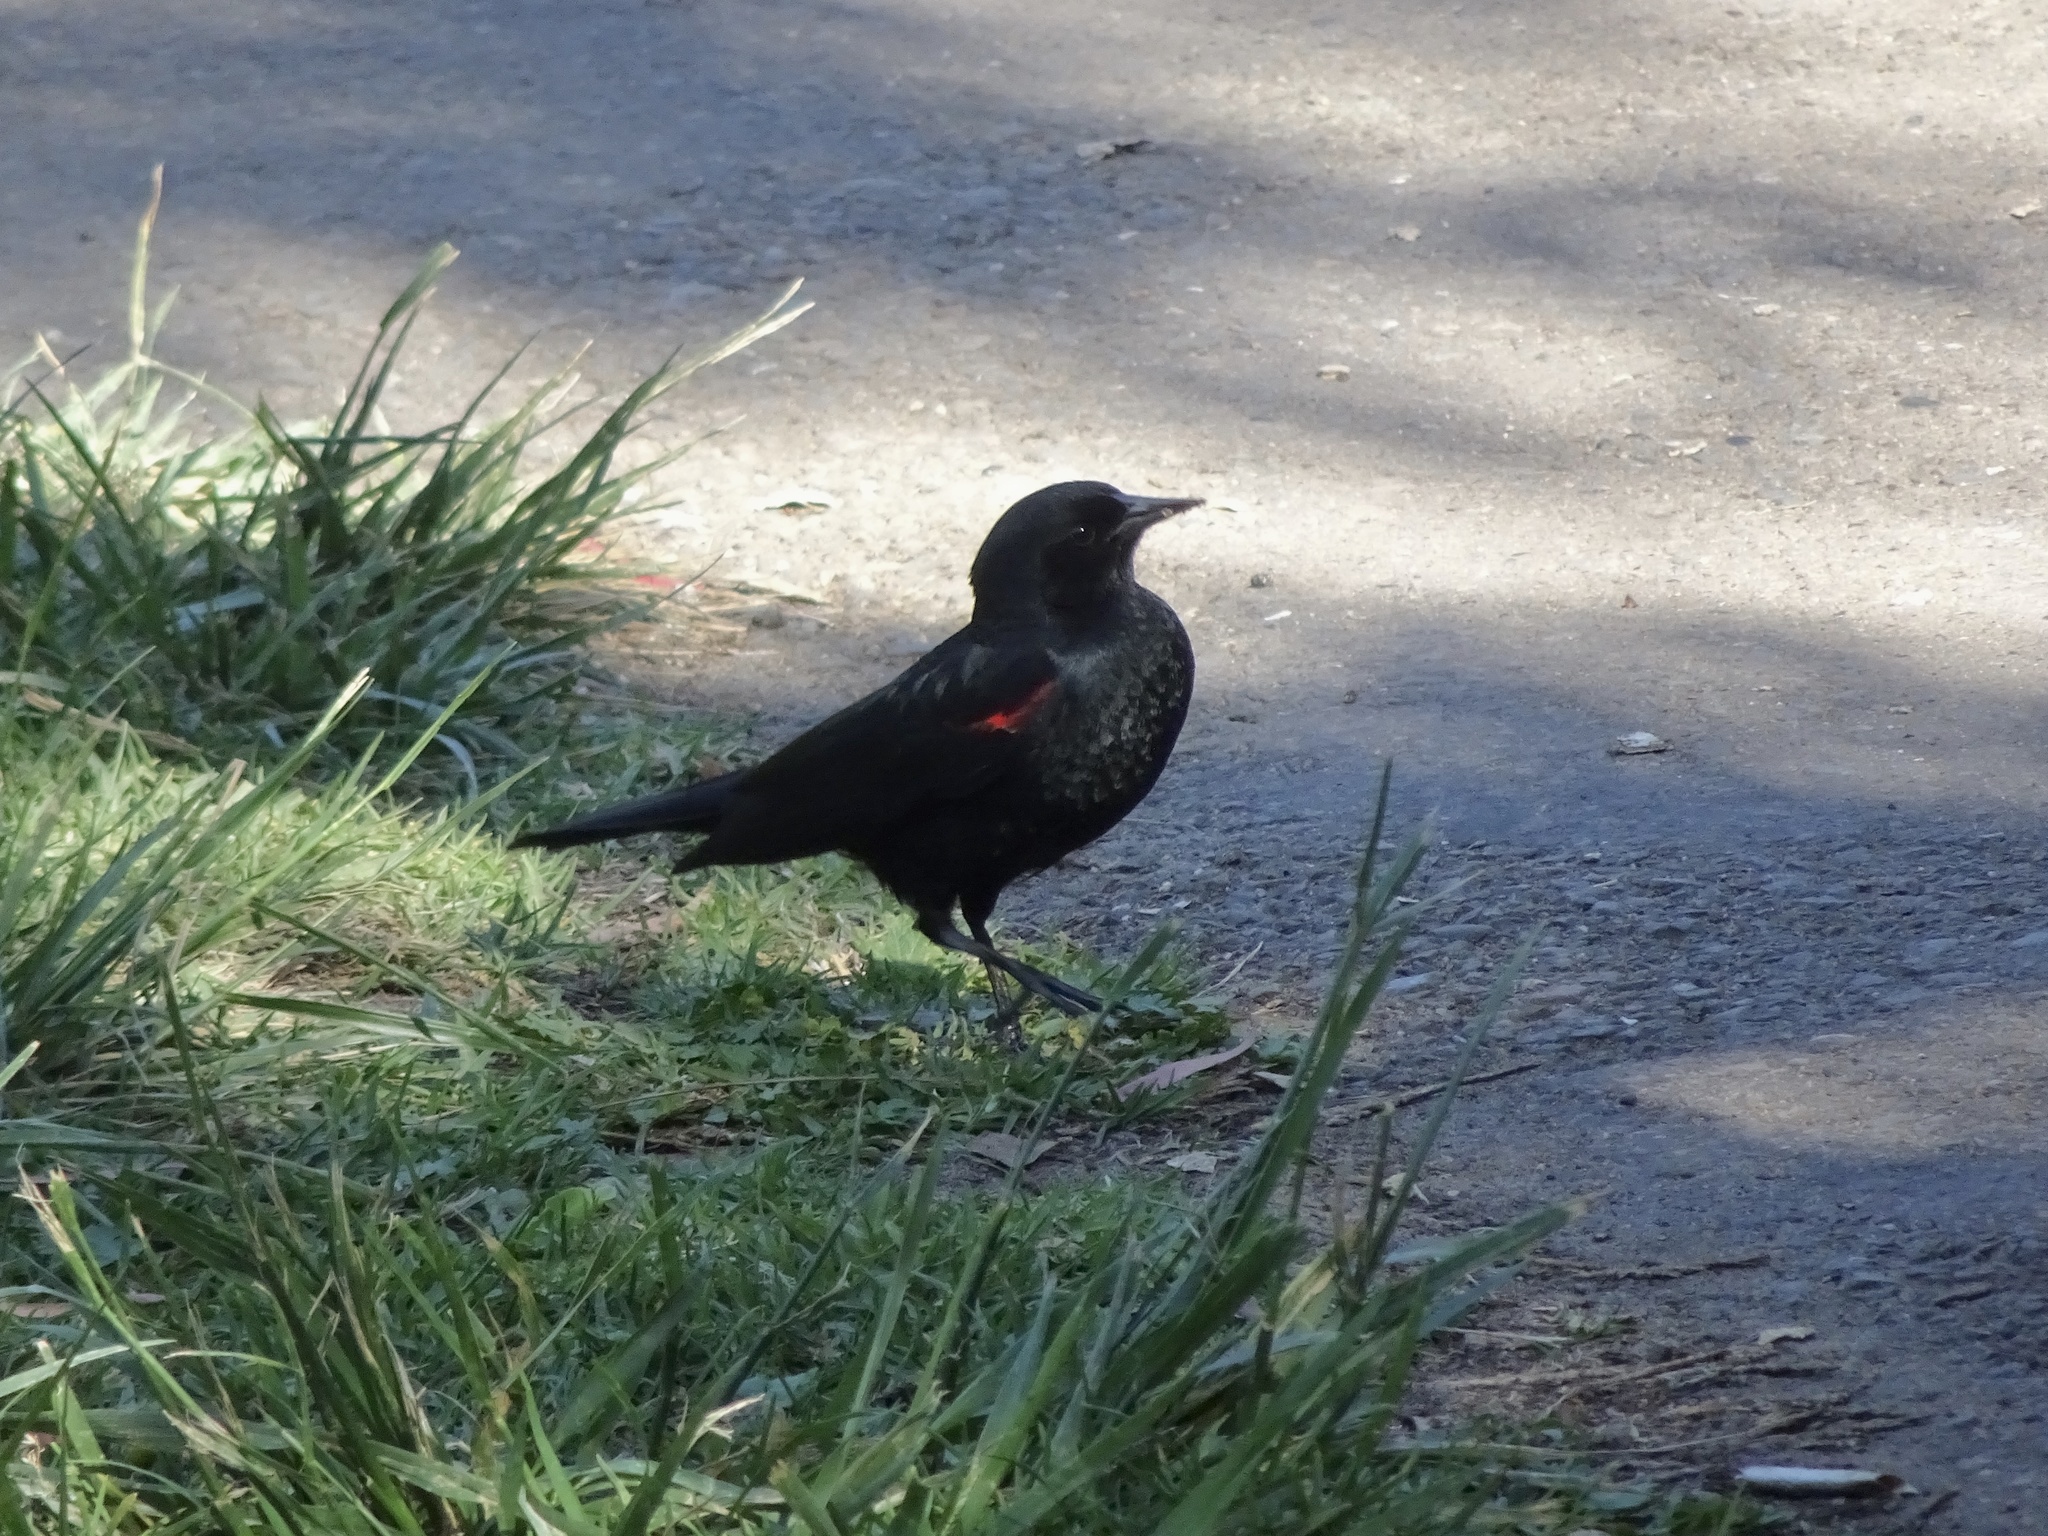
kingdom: Animalia
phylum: Chordata
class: Aves
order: Passeriformes
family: Icteridae
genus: Agelaius
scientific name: Agelaius phoeniceus
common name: Red-winged blackbird
